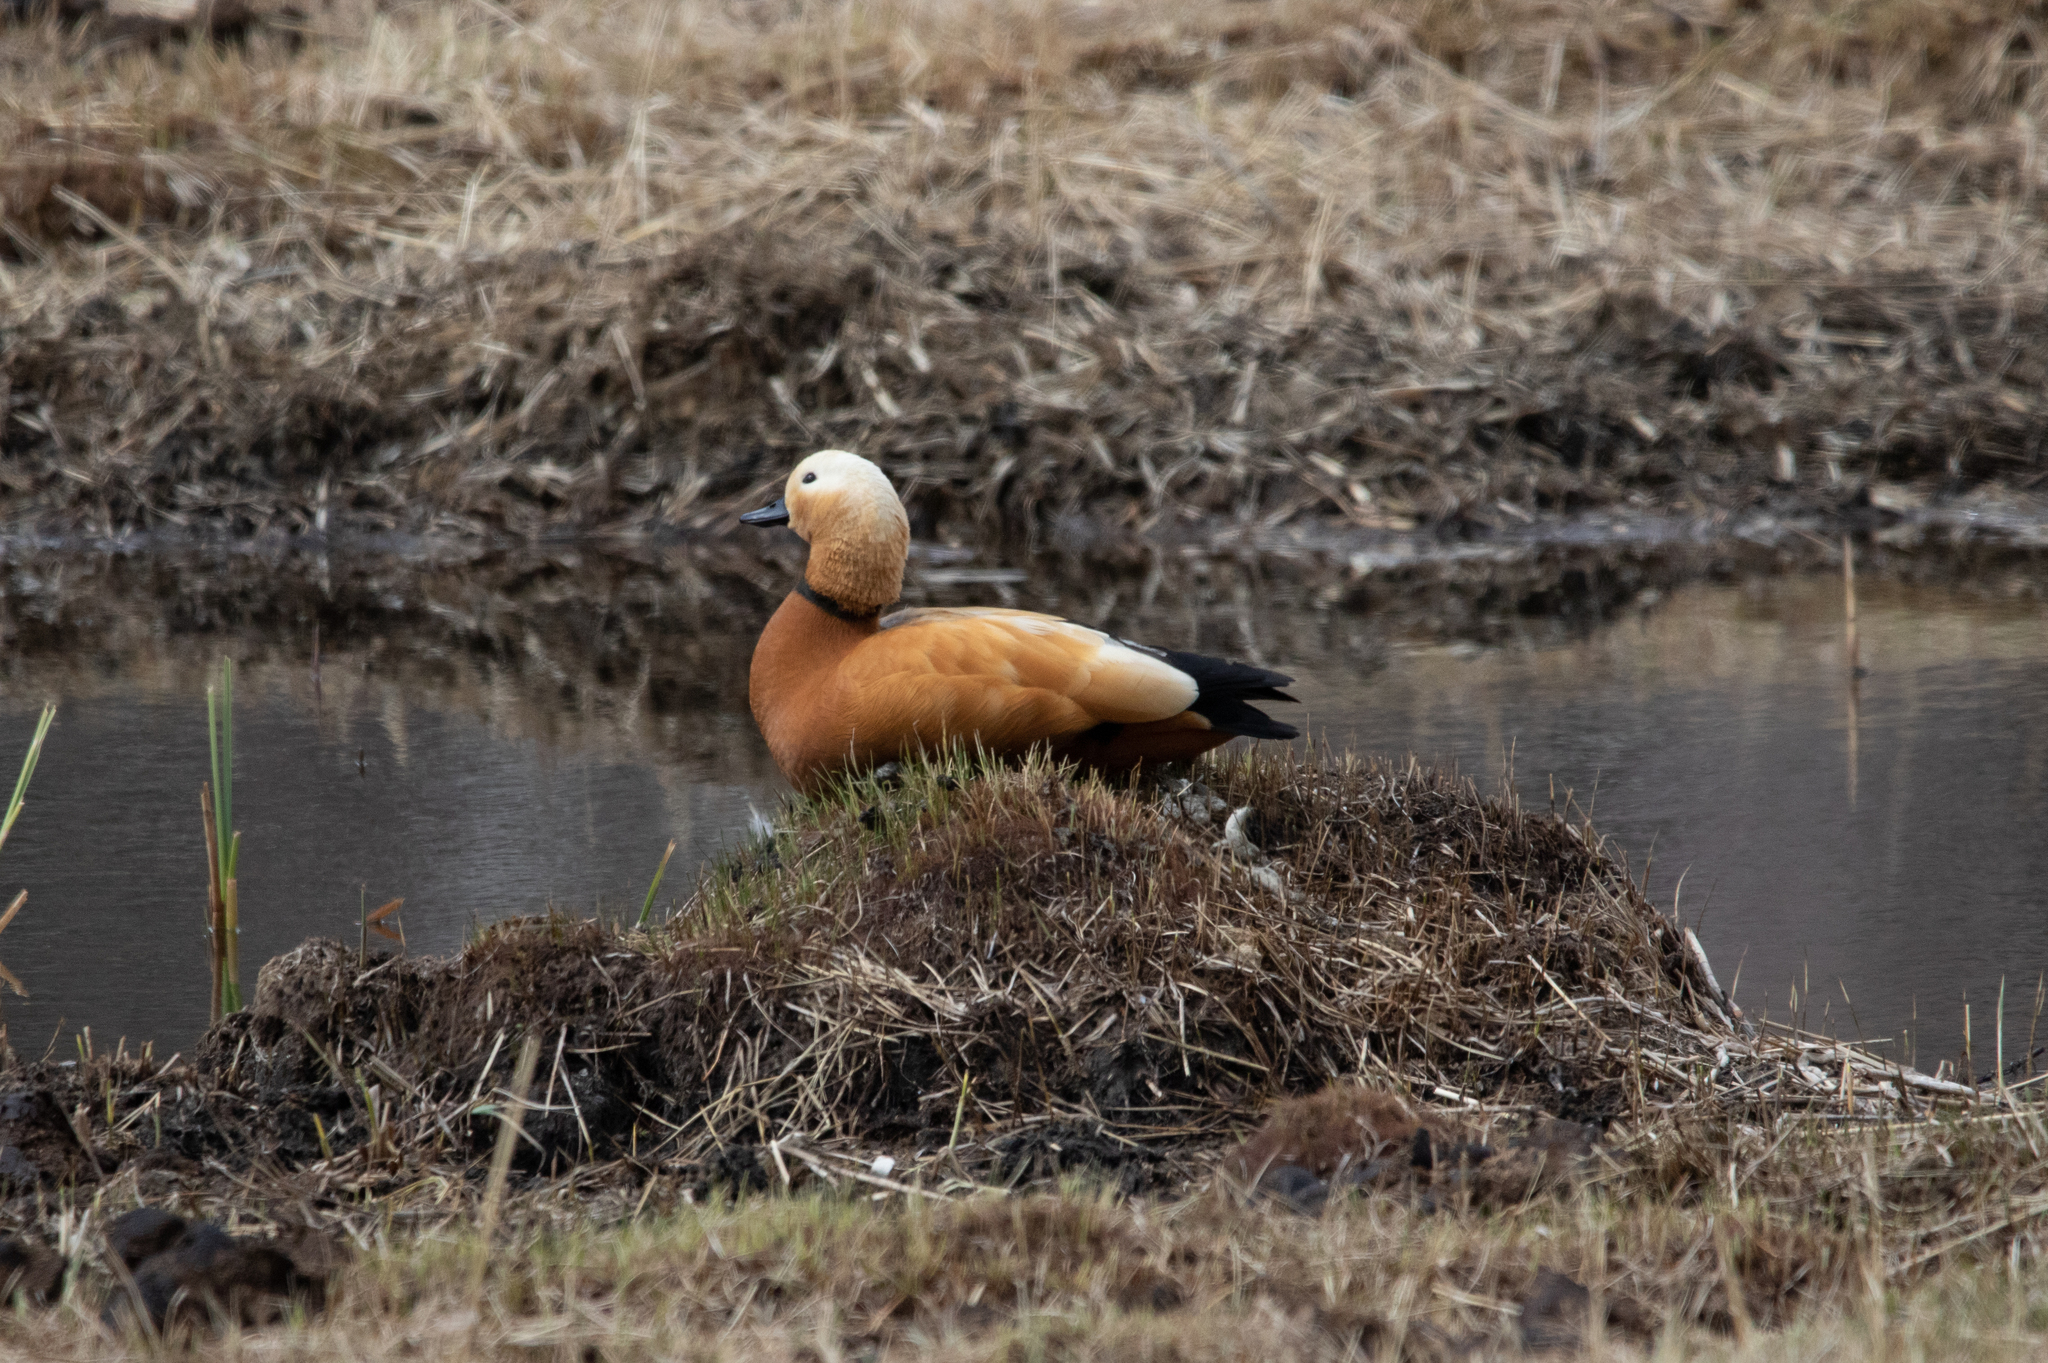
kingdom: Animalia
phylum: Chordata
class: Aves
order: Anseriformes
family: Anatidae
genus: Tadorna
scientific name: Tadorna ferruginea
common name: Ruddy shelduck
